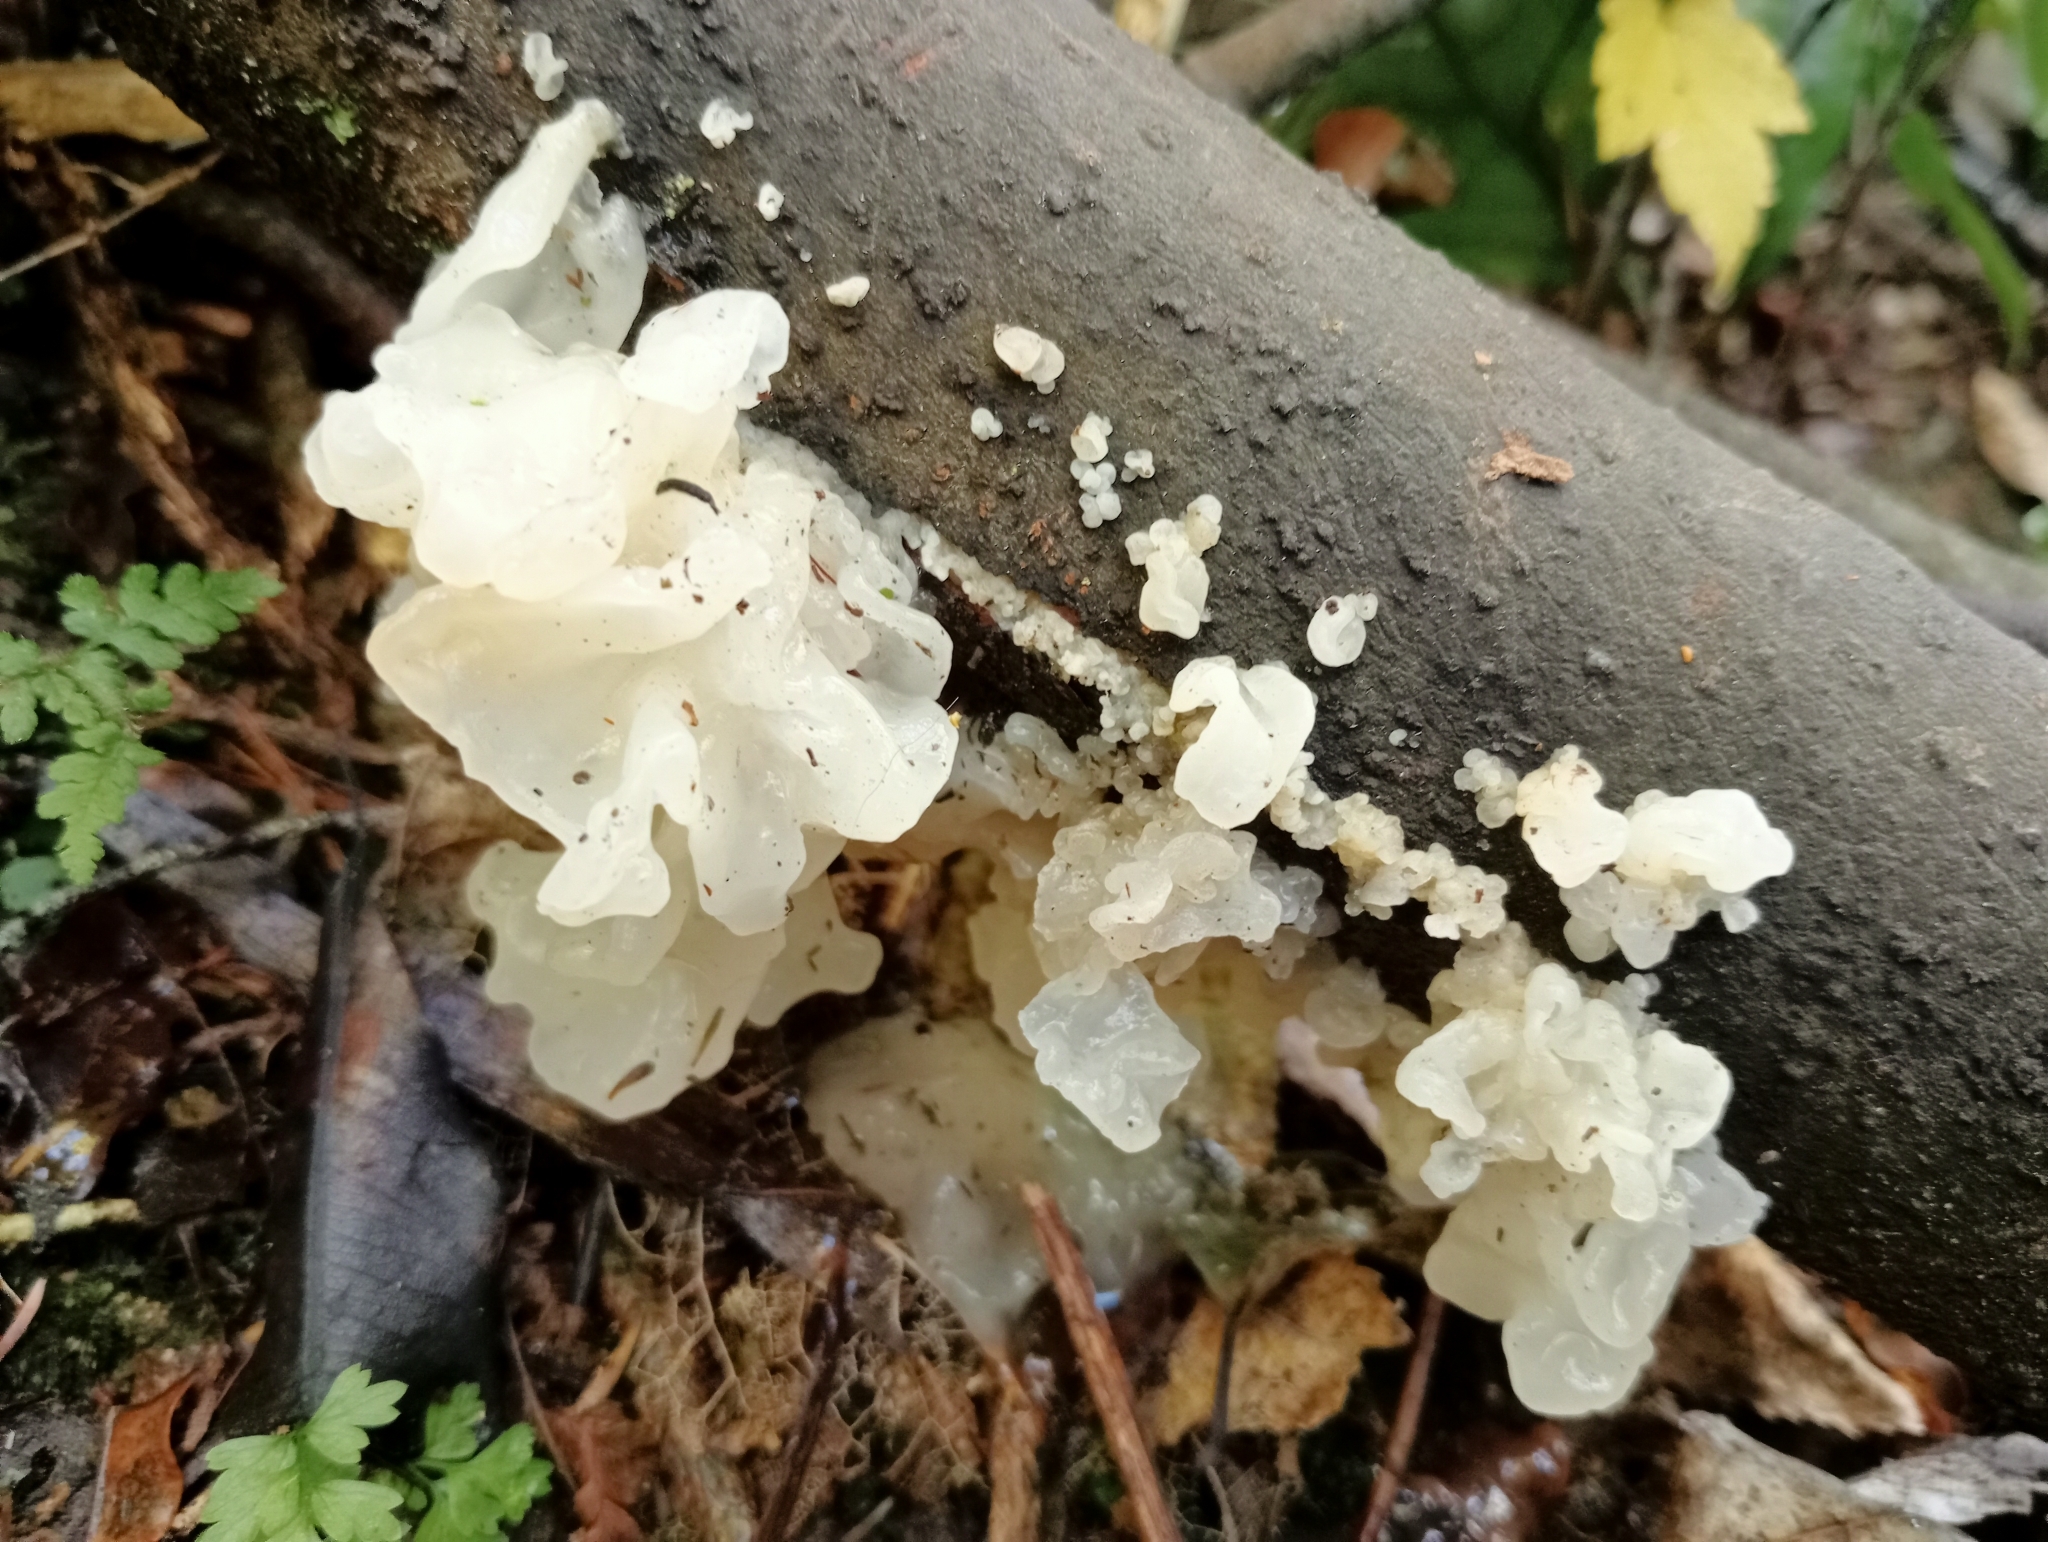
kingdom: Fungi
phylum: Basidiomycota
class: Tremellomycetes
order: Tremellales
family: Tremellaceae
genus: Tremella
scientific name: Tremella fuciformis
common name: Snow fungus
